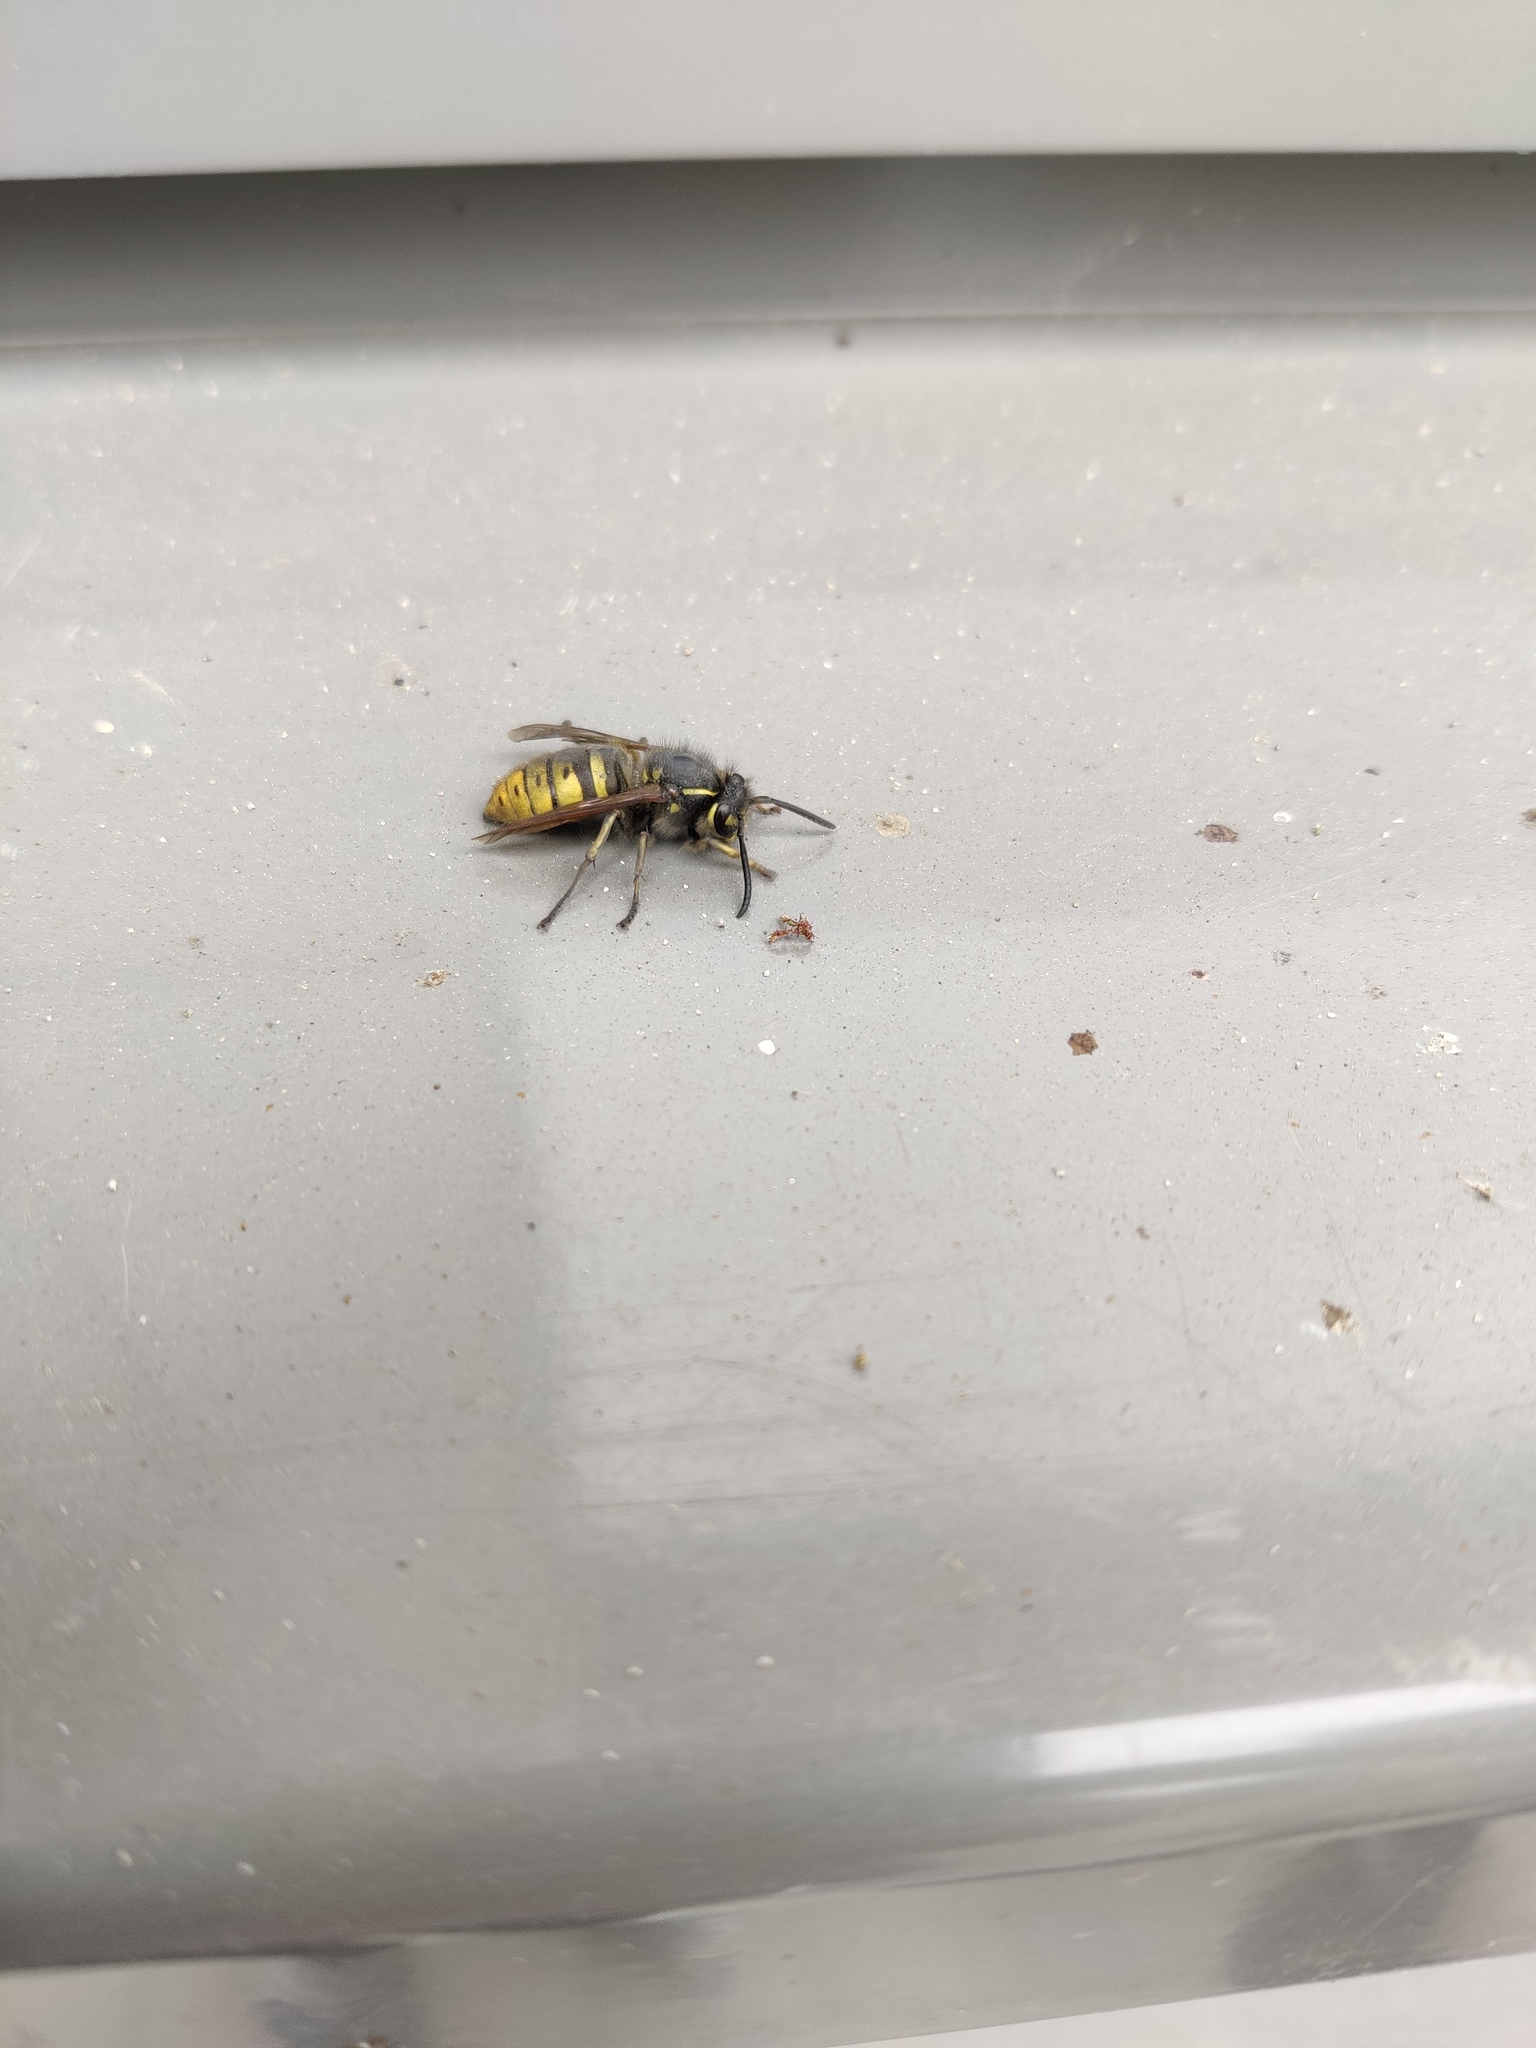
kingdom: Animalia
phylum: Arthropoda
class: Insecta
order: Hymenoptera
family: Vespidae
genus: Vespula
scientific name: Vespula vulgaris
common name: Common wasp
